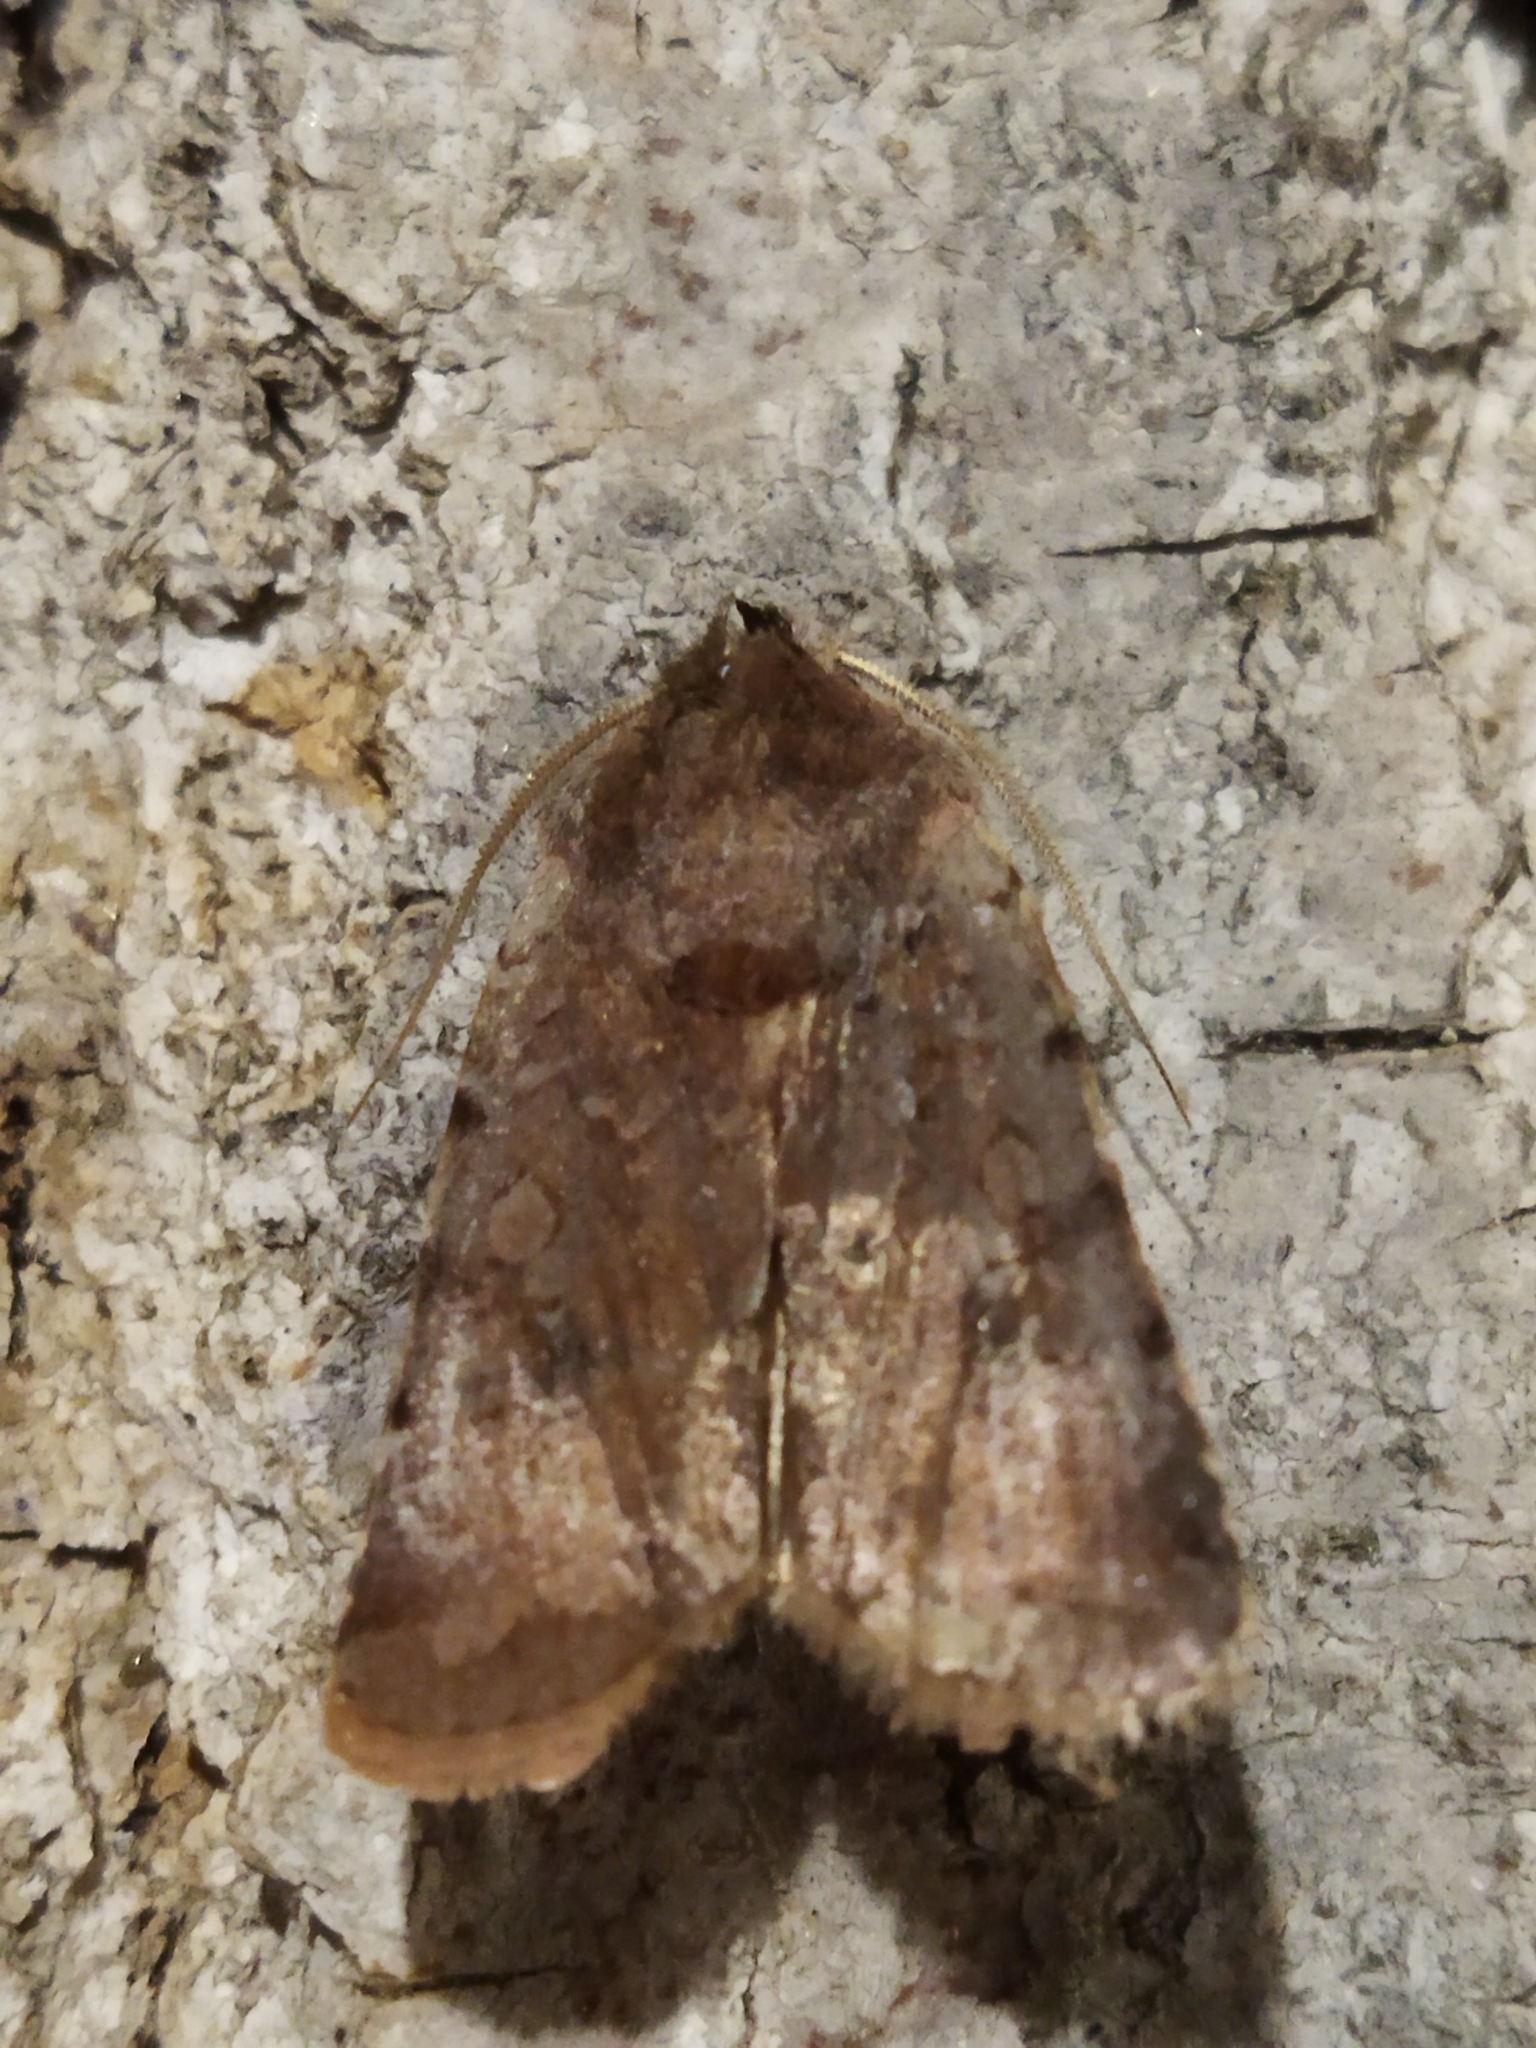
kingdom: Animalia
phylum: Arthropoda
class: Insecta
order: Lepidoptera
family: Noctuidae
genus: Cerastis
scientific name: Cerastis rubricosa
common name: Red chestnut
